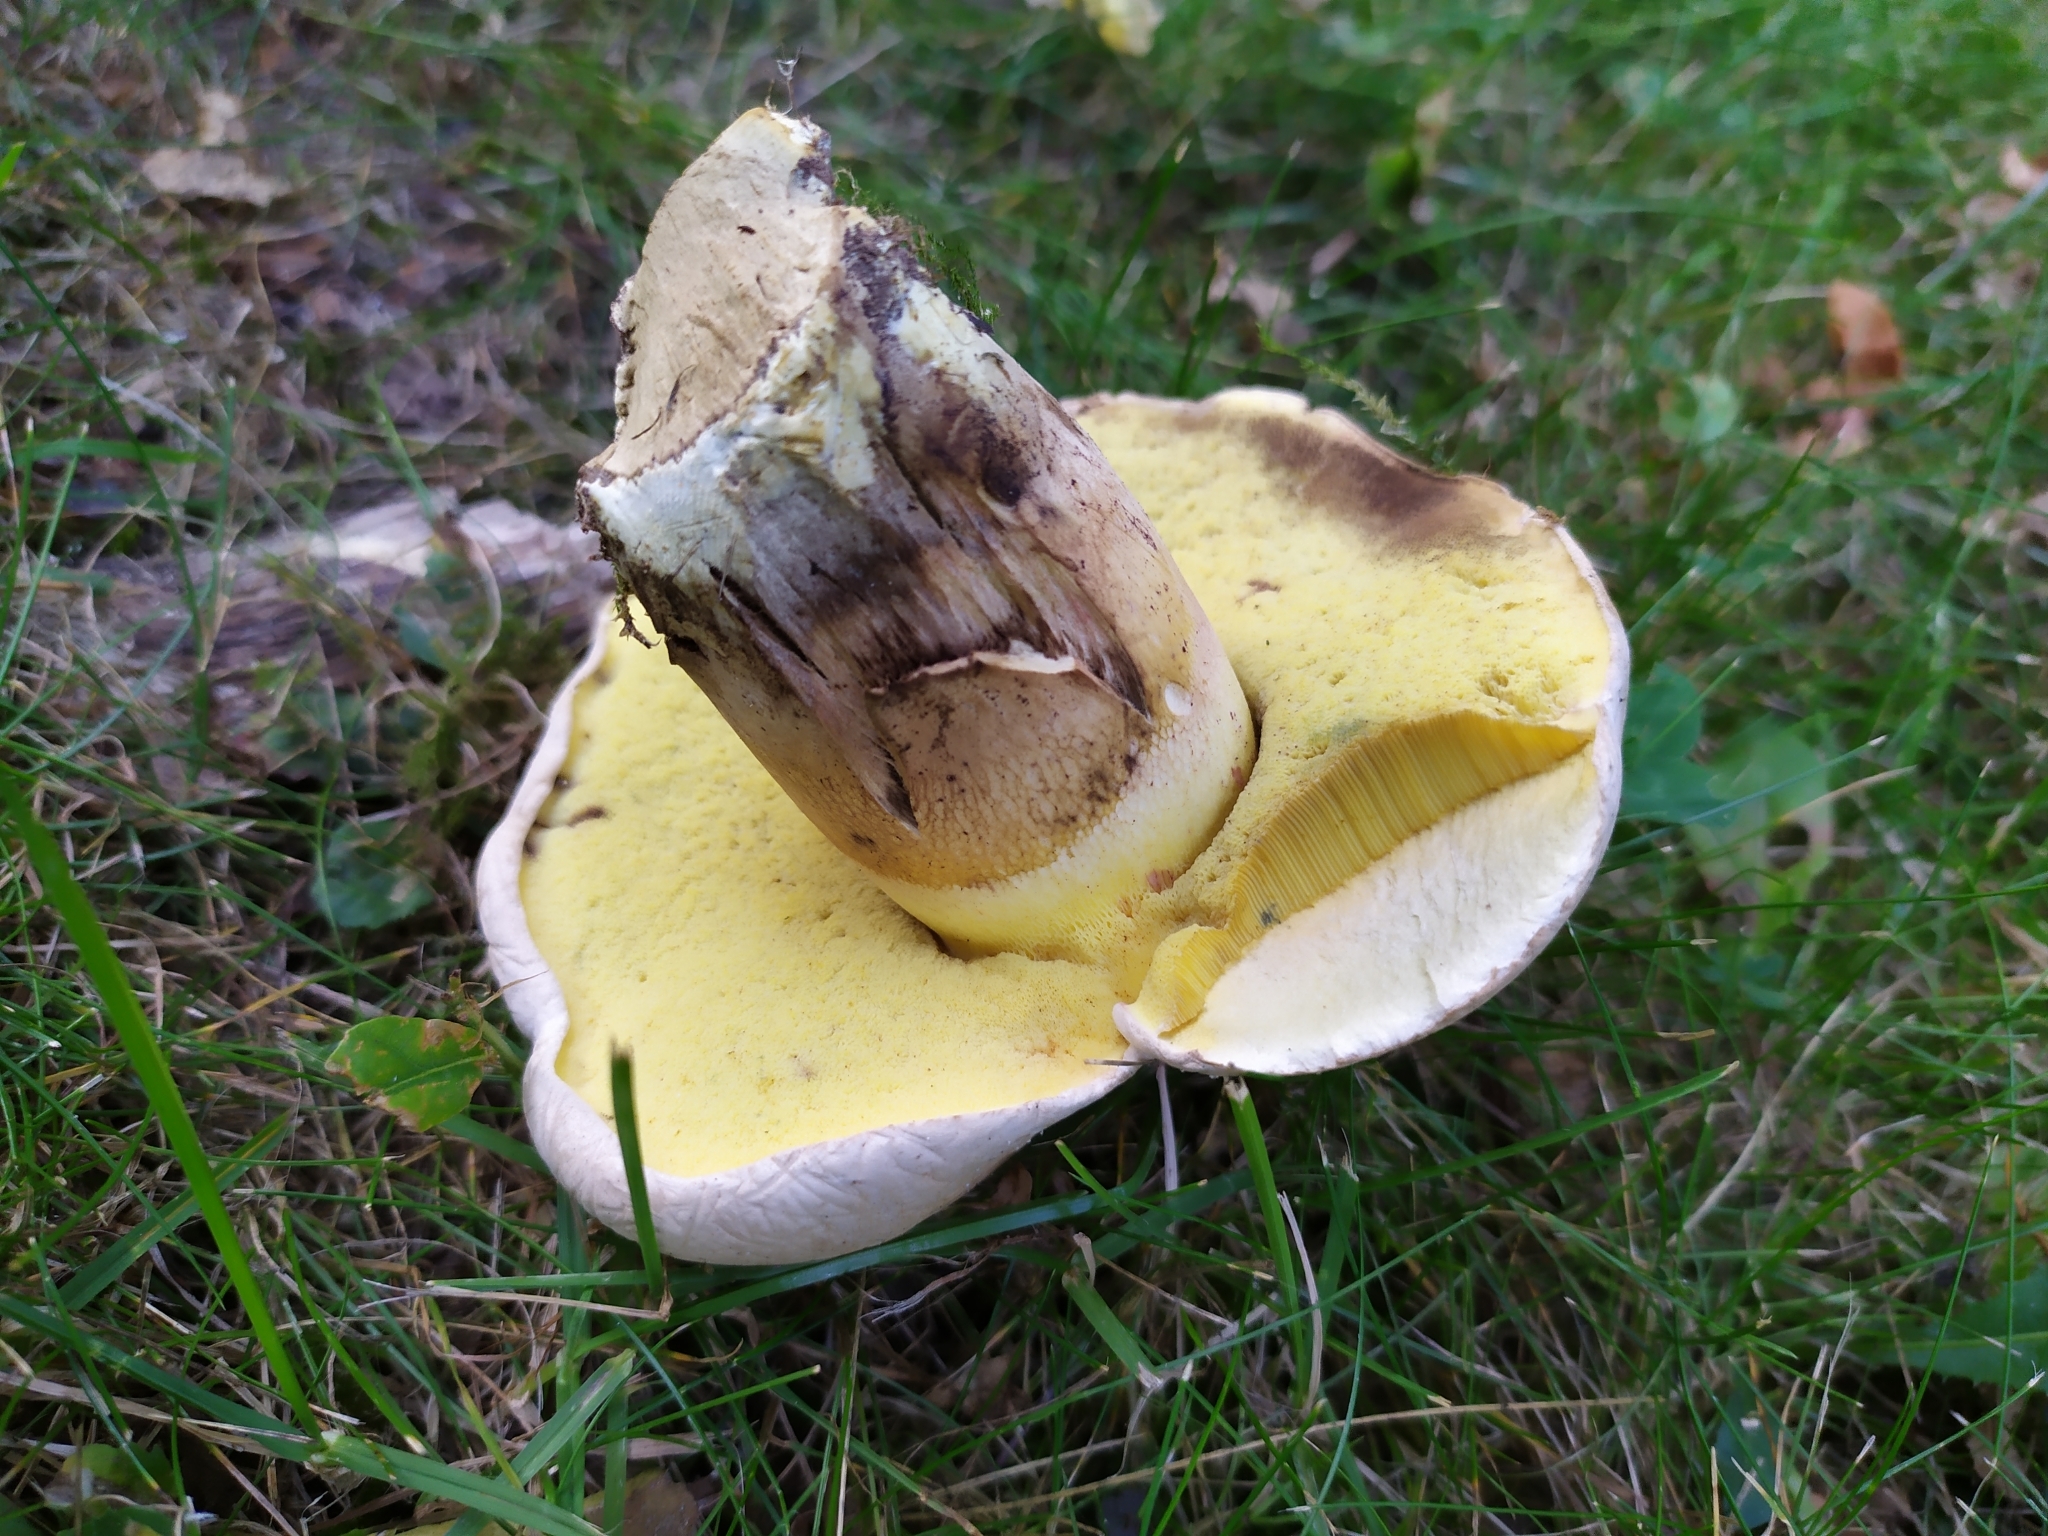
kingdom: Fungi
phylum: Basidiomycota
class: Agaricomycetes
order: Boletales
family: Boletaceae
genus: Caloboletus
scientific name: Caloboletus radicans
